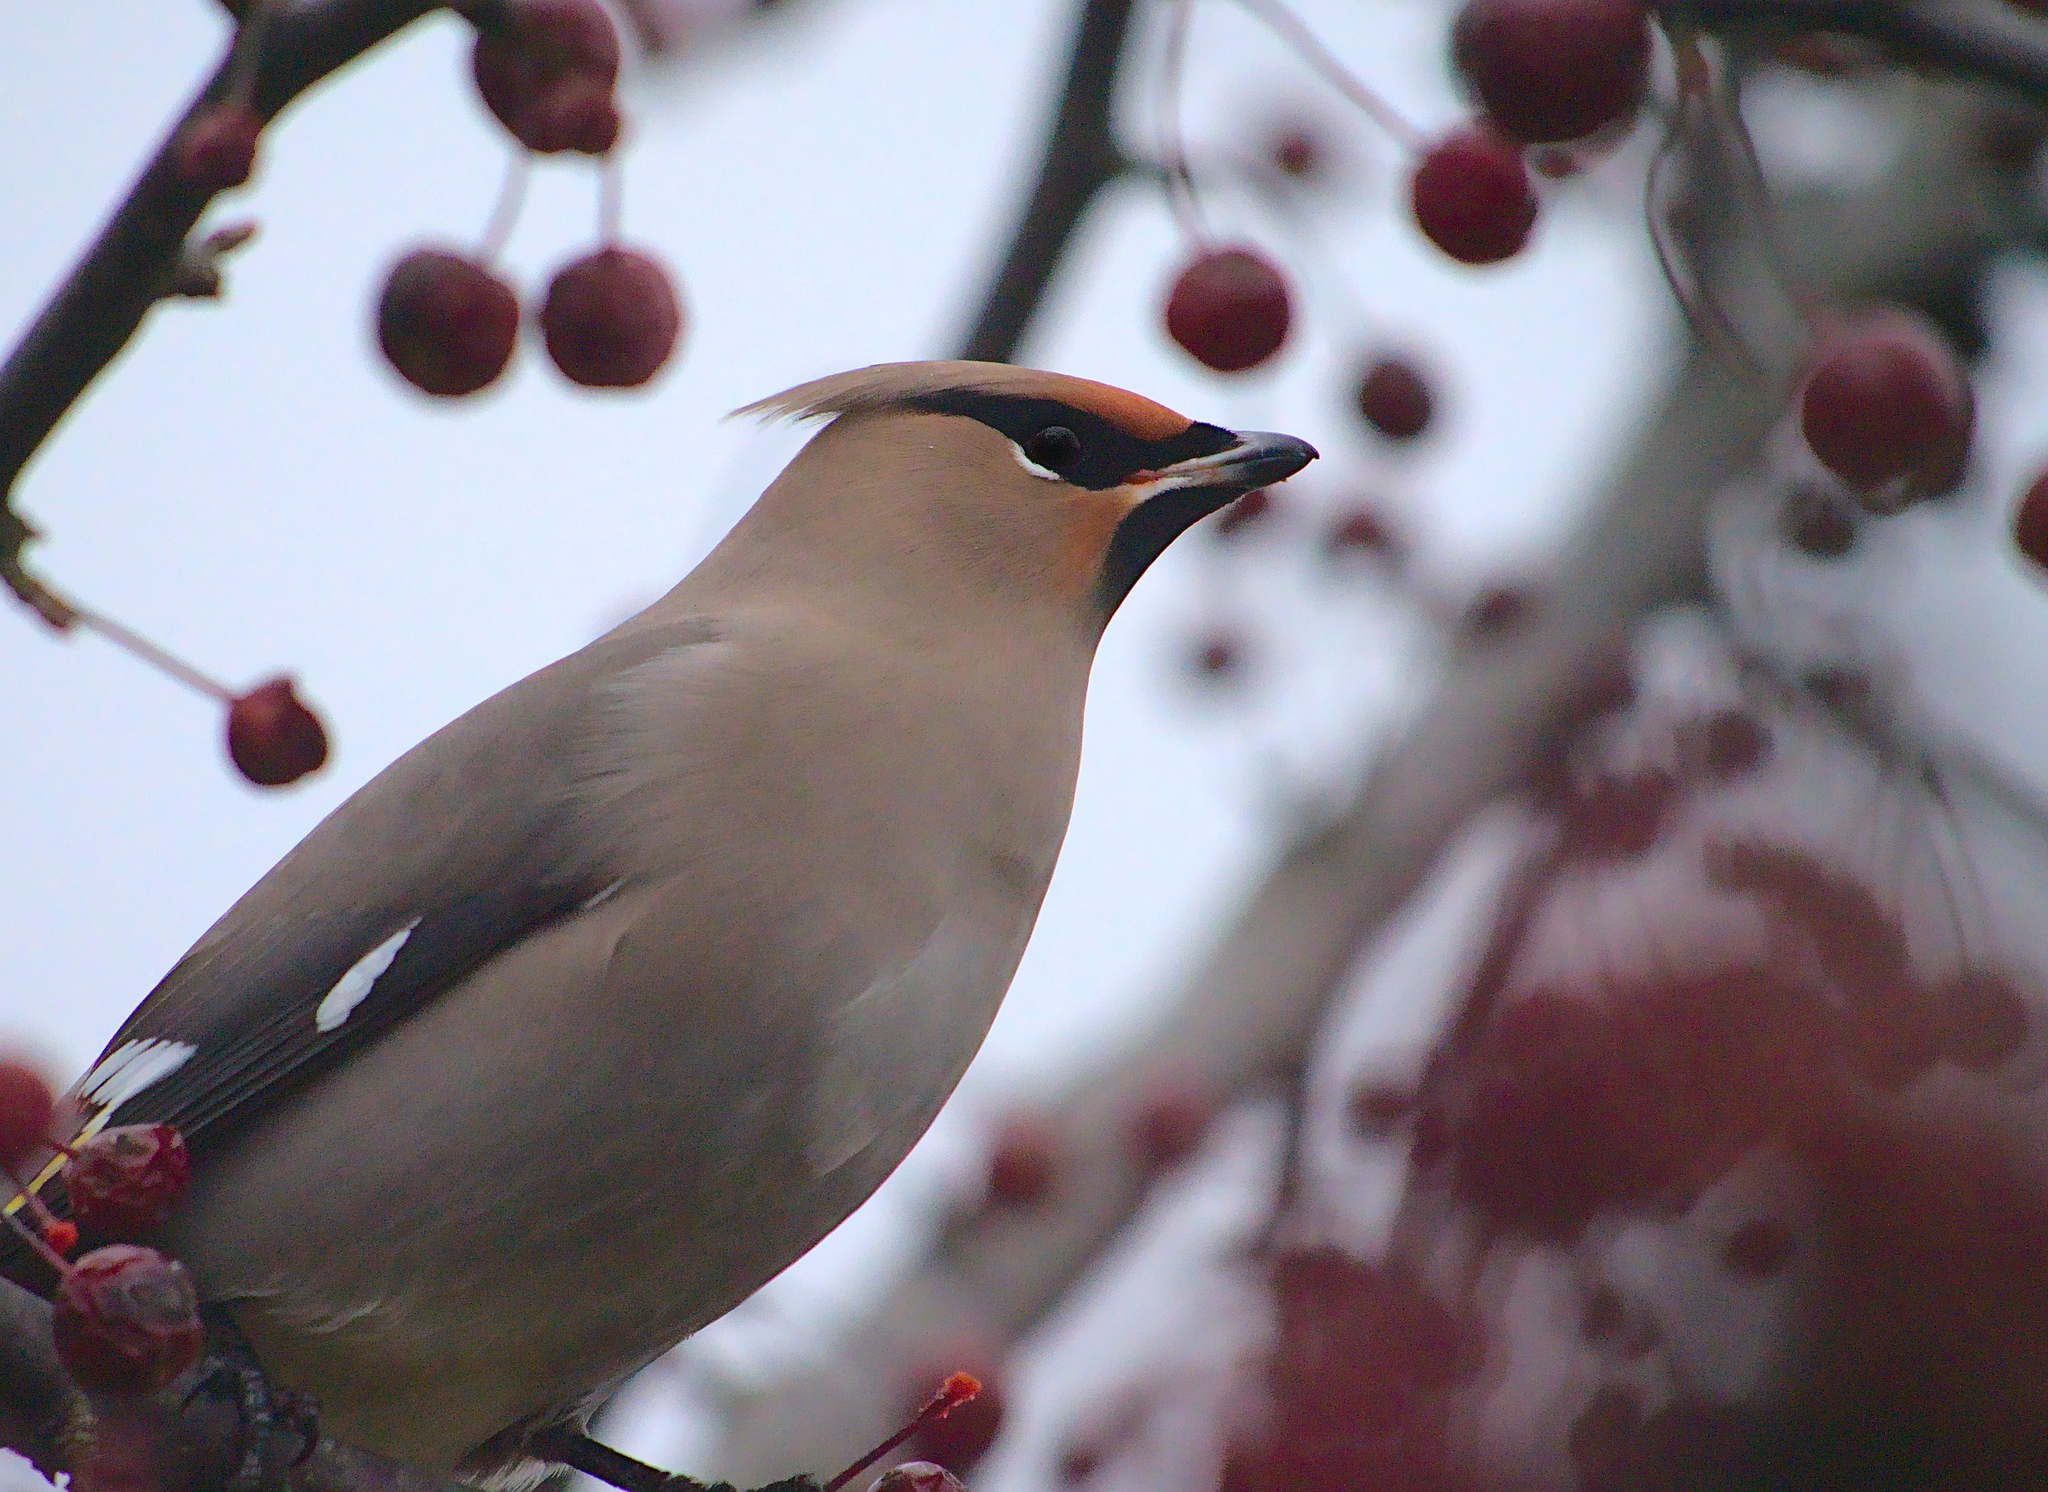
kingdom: Animalia
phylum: Chordata
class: Aves
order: Passeriformes
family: Bombycillidae
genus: Bombycilla
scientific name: Bombycilla garrulus
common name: Bohemian waxwing
